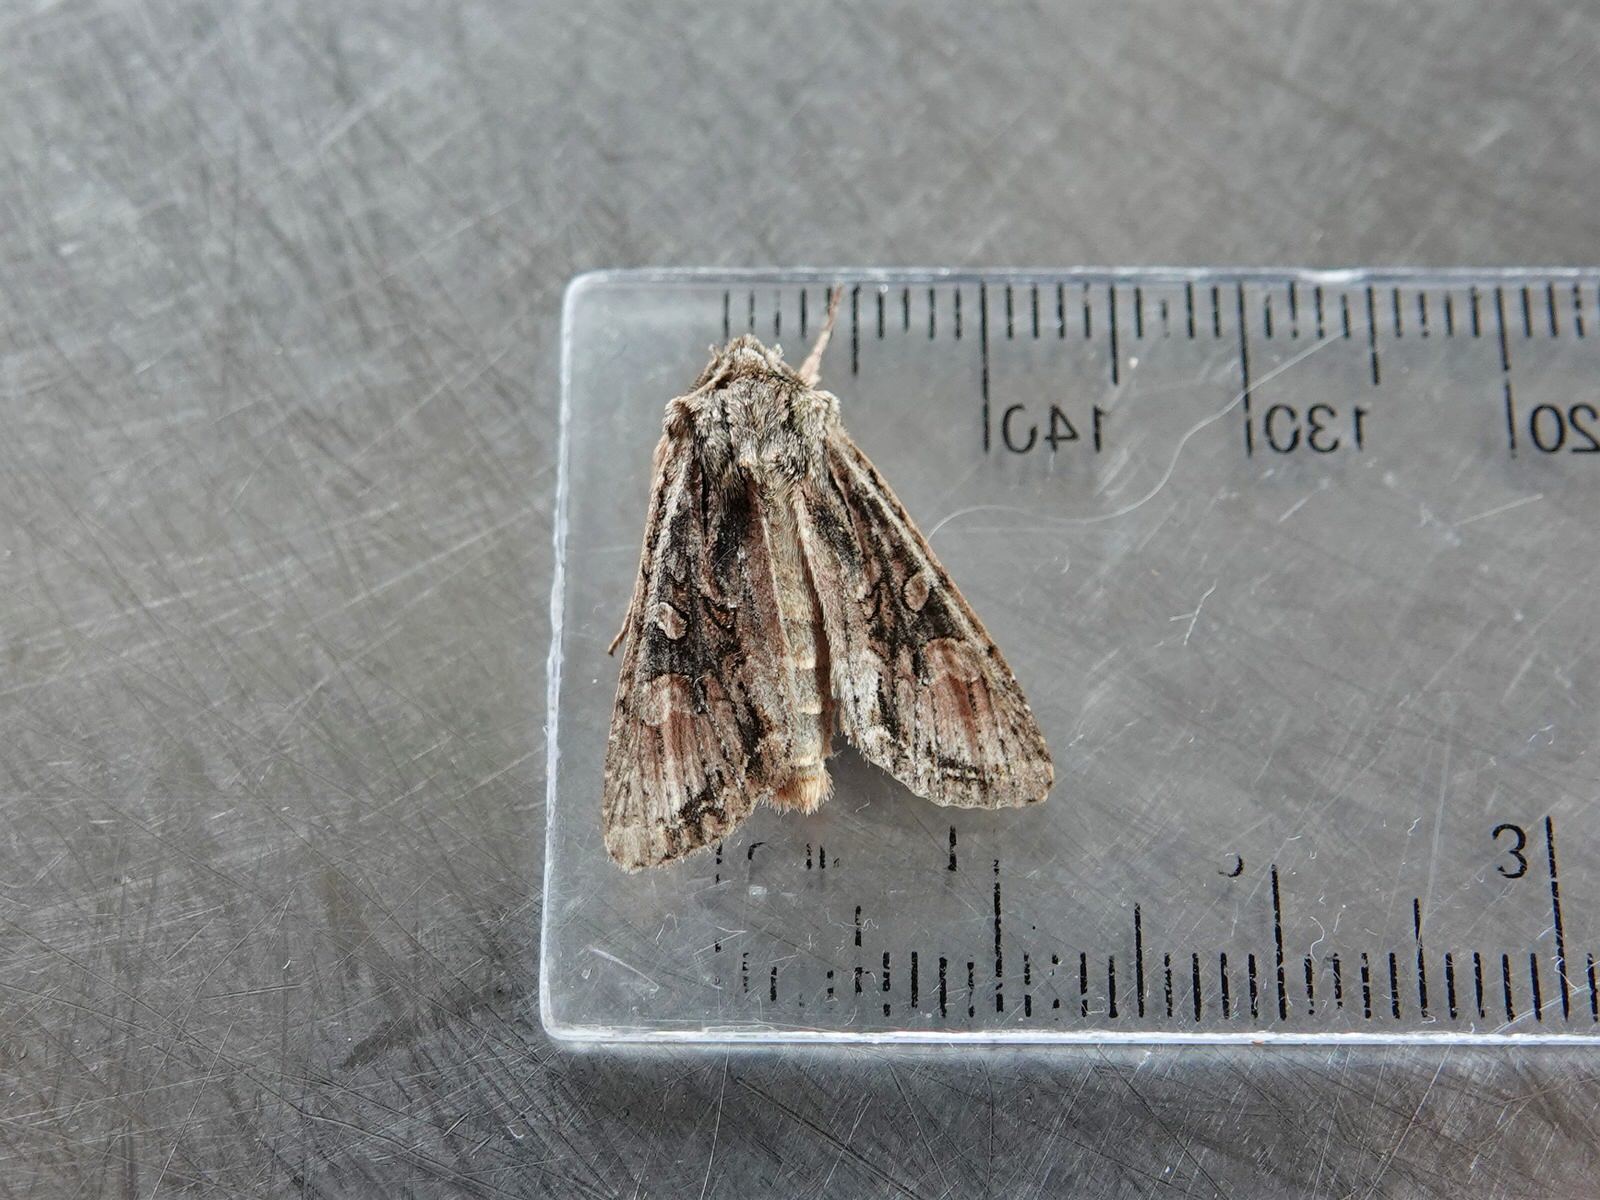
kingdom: Animalia
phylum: Arthropoda
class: Insecta
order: Lepidoptera
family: Noctuidae
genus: Ichneutica
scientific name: Ichneutica mutans
